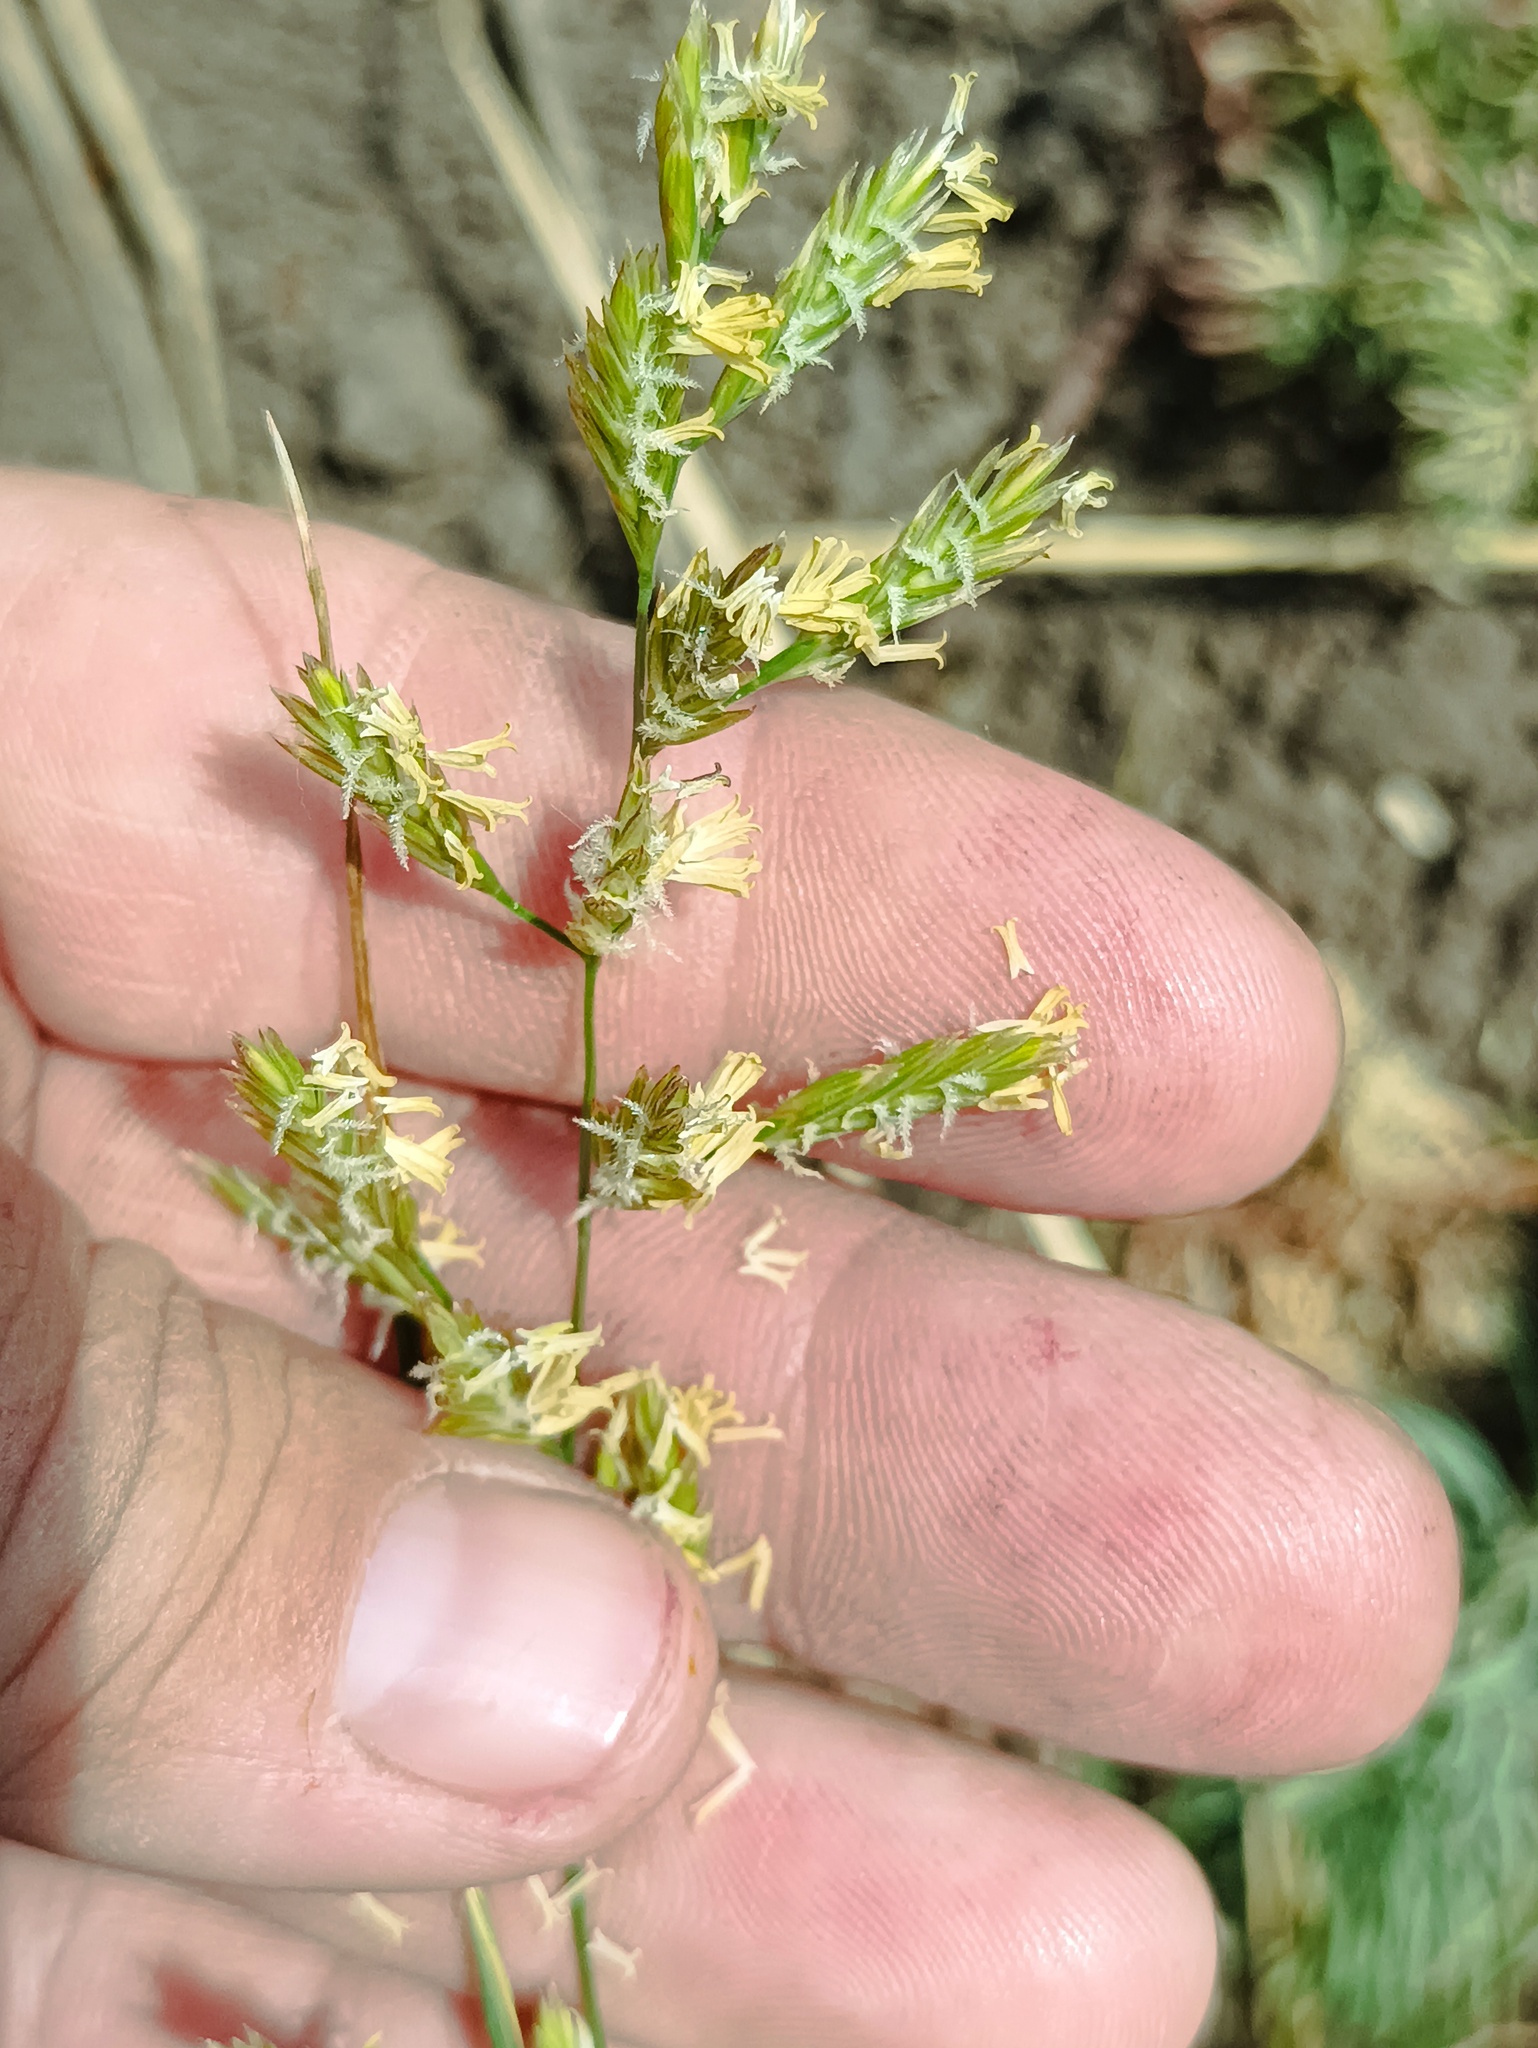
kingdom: Plantae
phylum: Tracheophyta
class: Liliopsida
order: Poales
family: Poaceae
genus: Lolium
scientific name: Lolium pratense
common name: Dover grass
